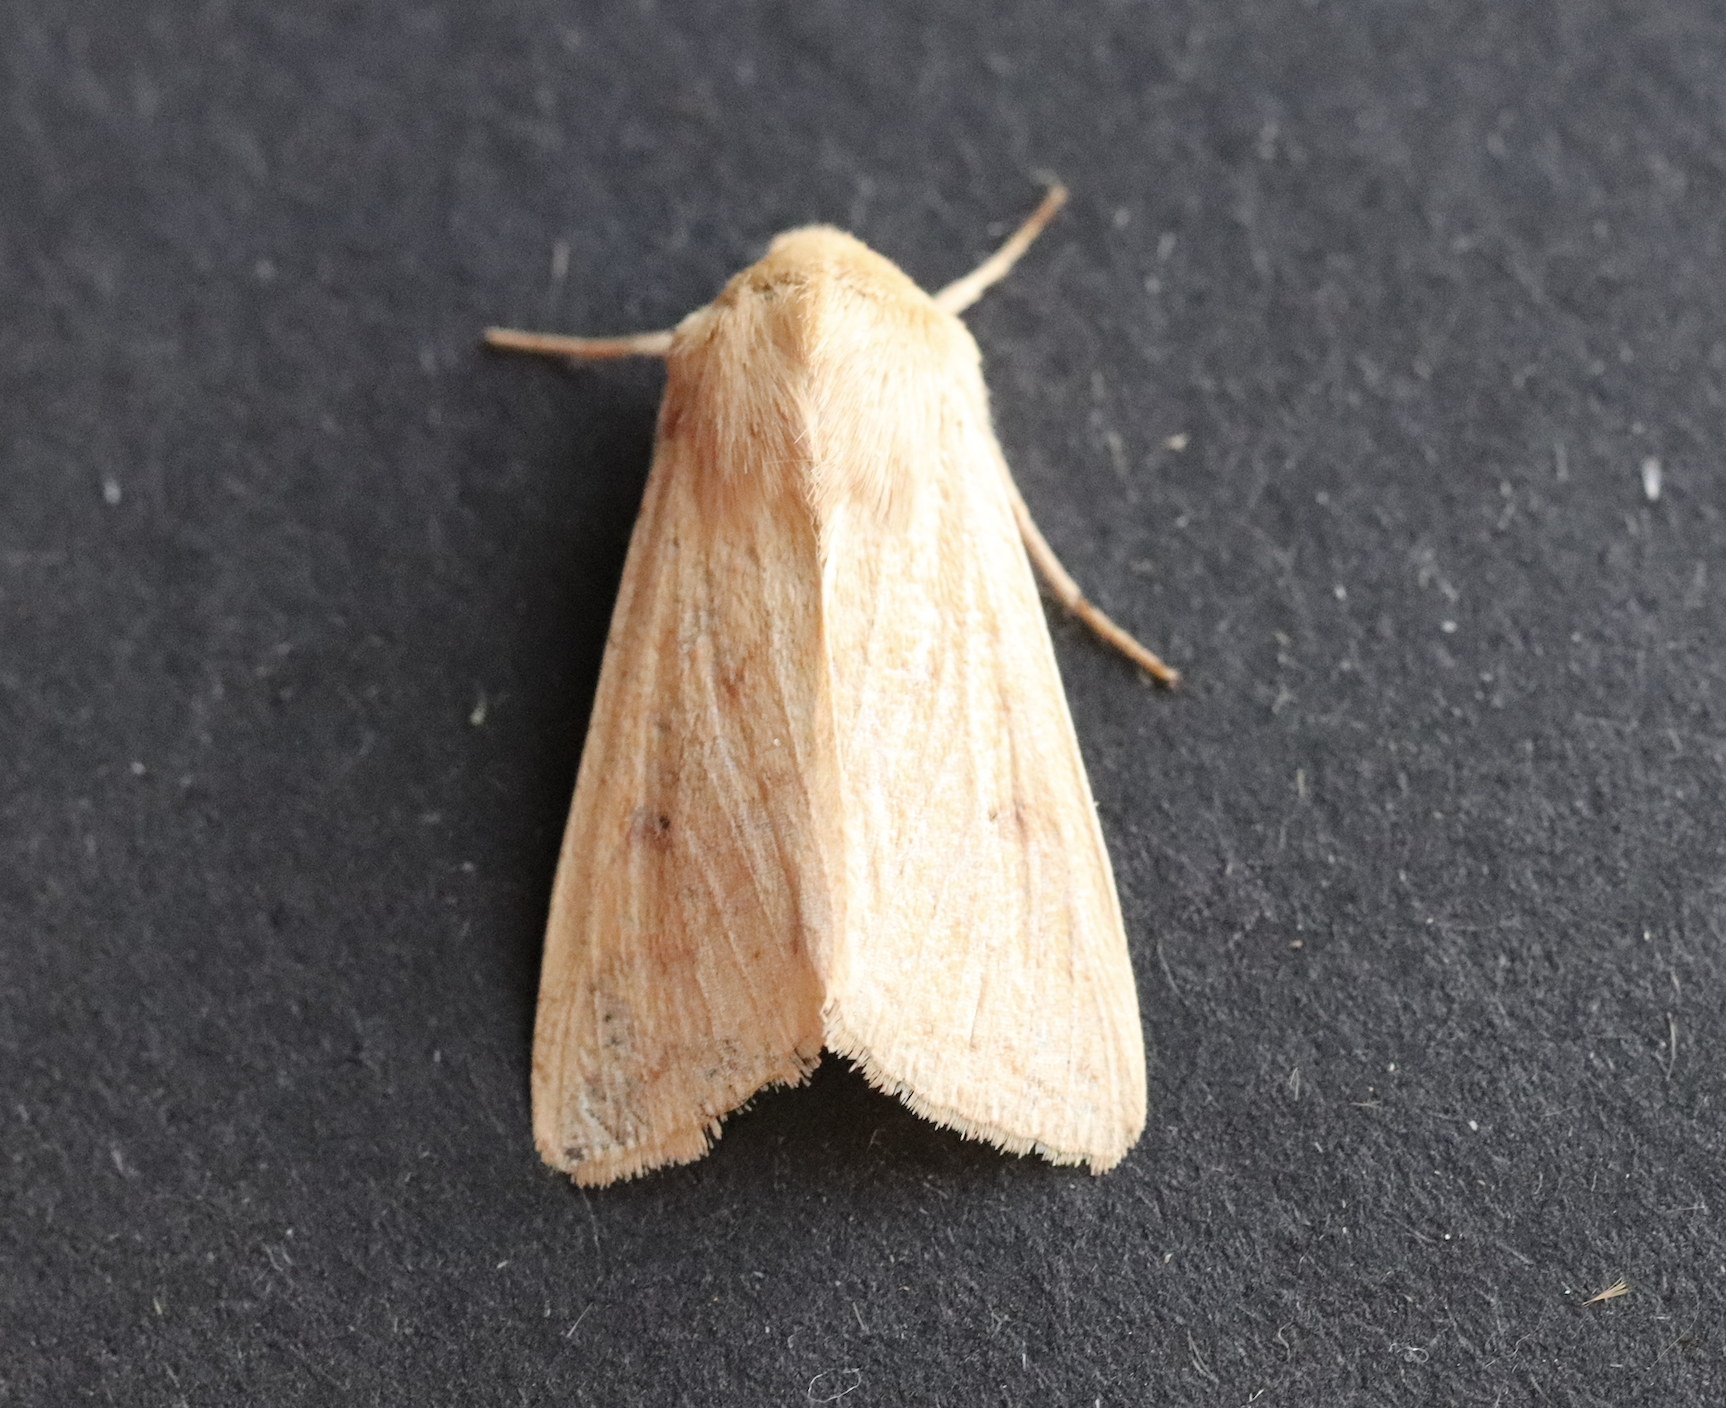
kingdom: Animalia
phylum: Arthropoda
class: Insecta
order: Lepidoptera
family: Noctuidae
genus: Mythimna
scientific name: Mythimna vitellina
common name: Delicate
